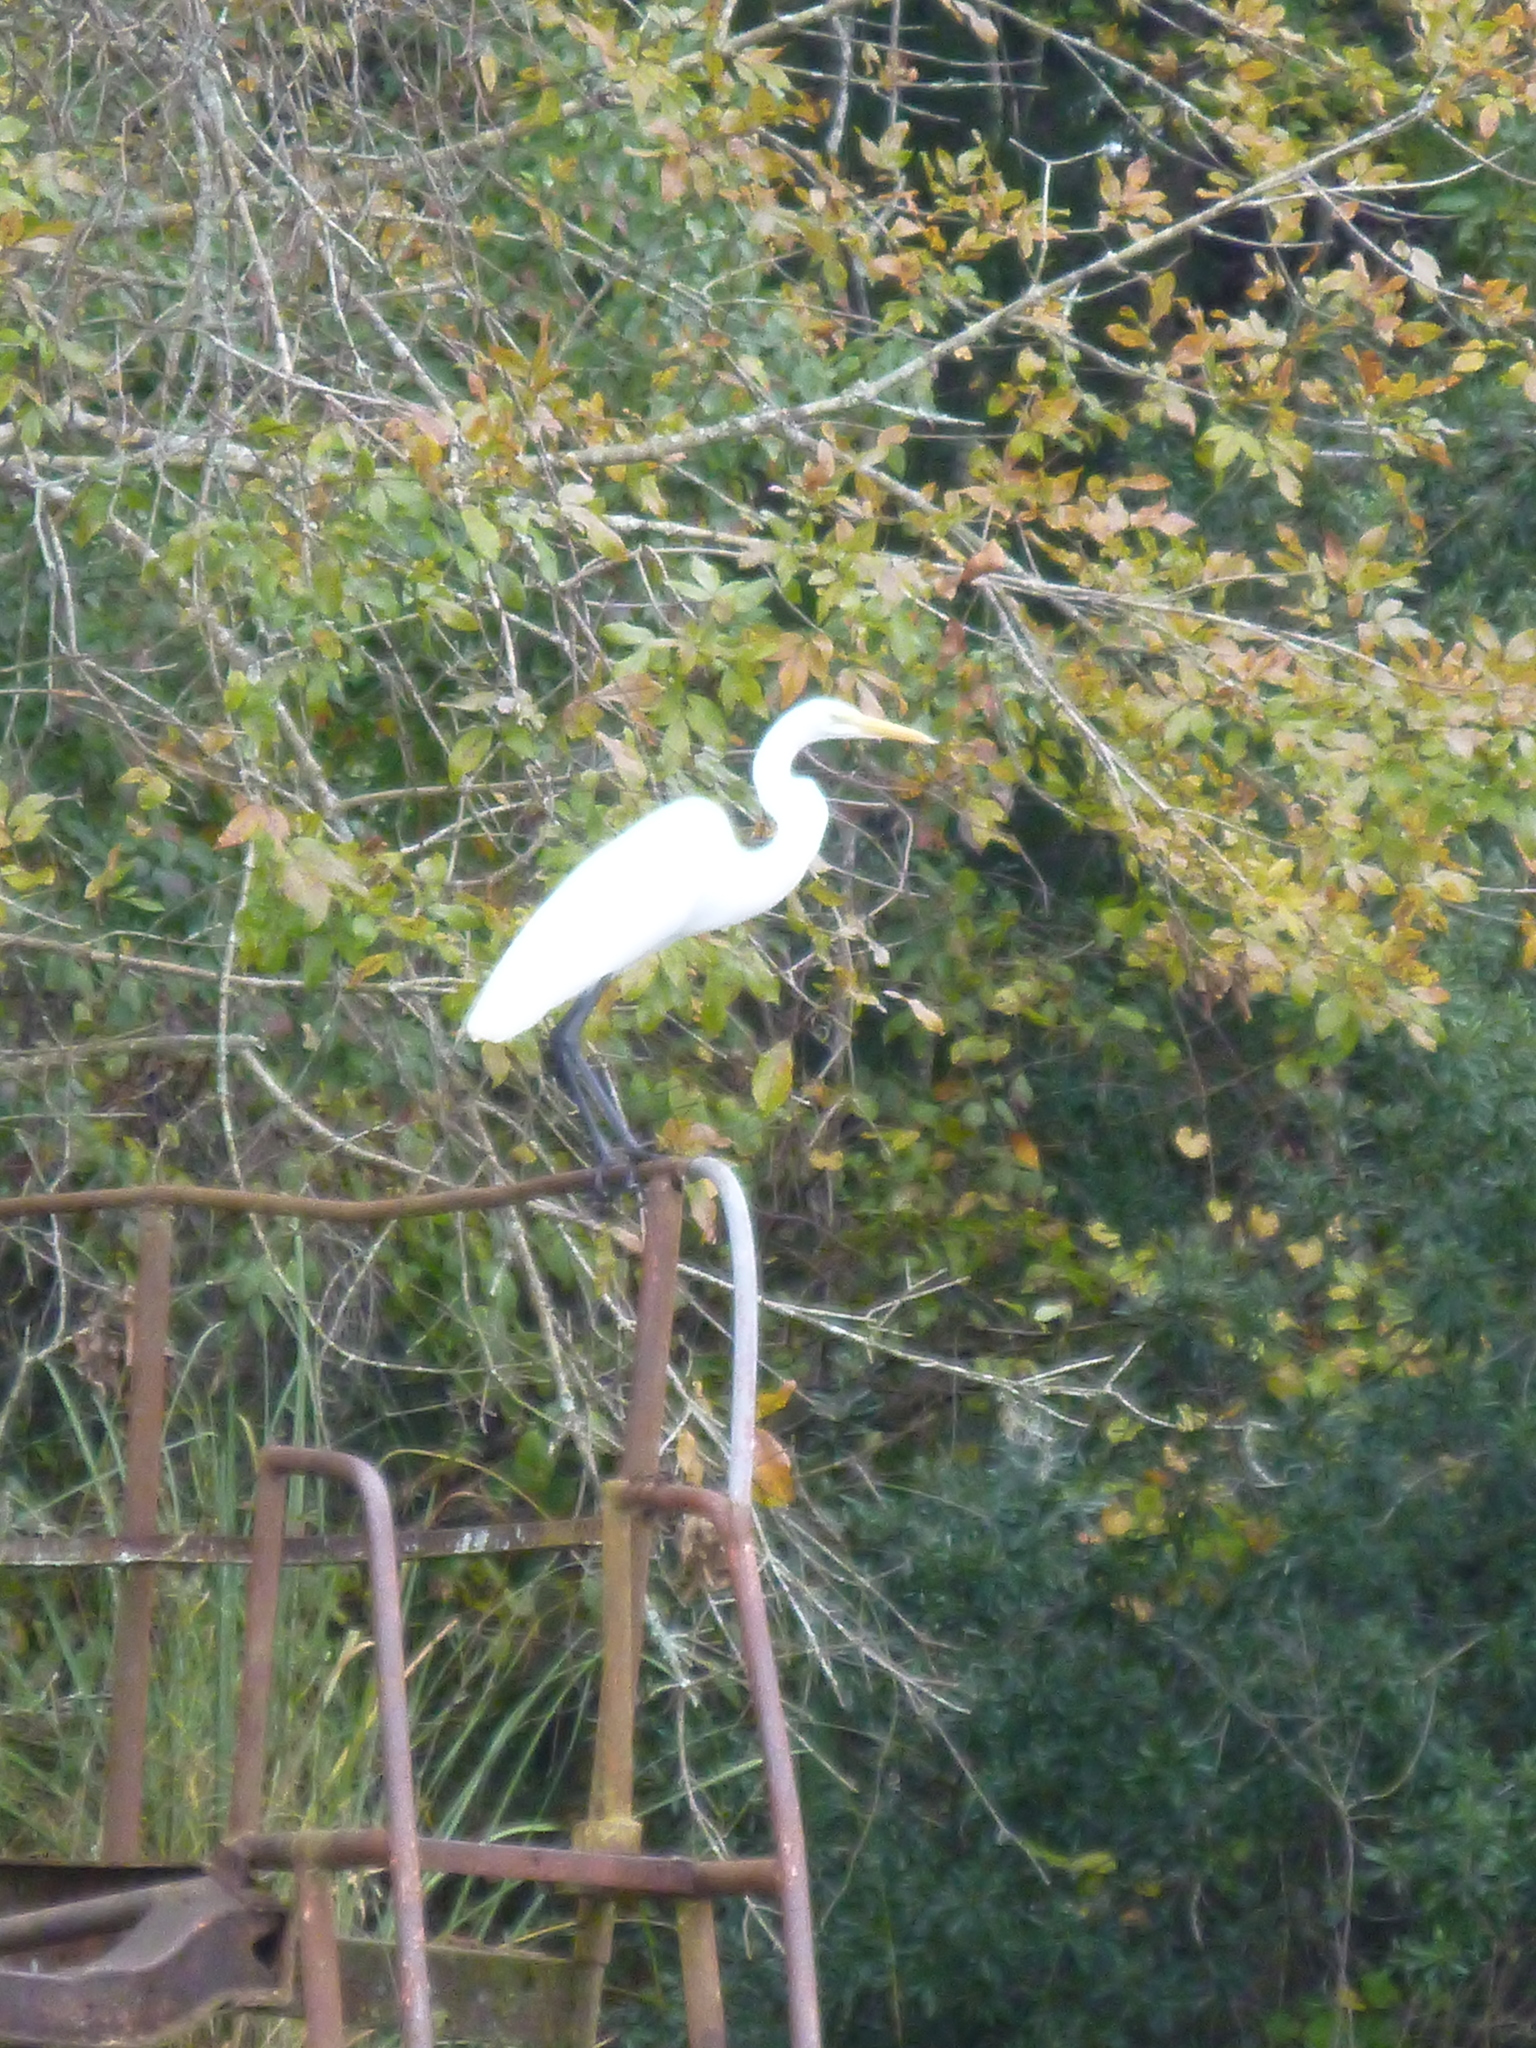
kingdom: Animalia
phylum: Chordata
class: Aves
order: Pelecaniformes
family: Ardeidae
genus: Ardea
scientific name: Ardea alba
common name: Great egret
